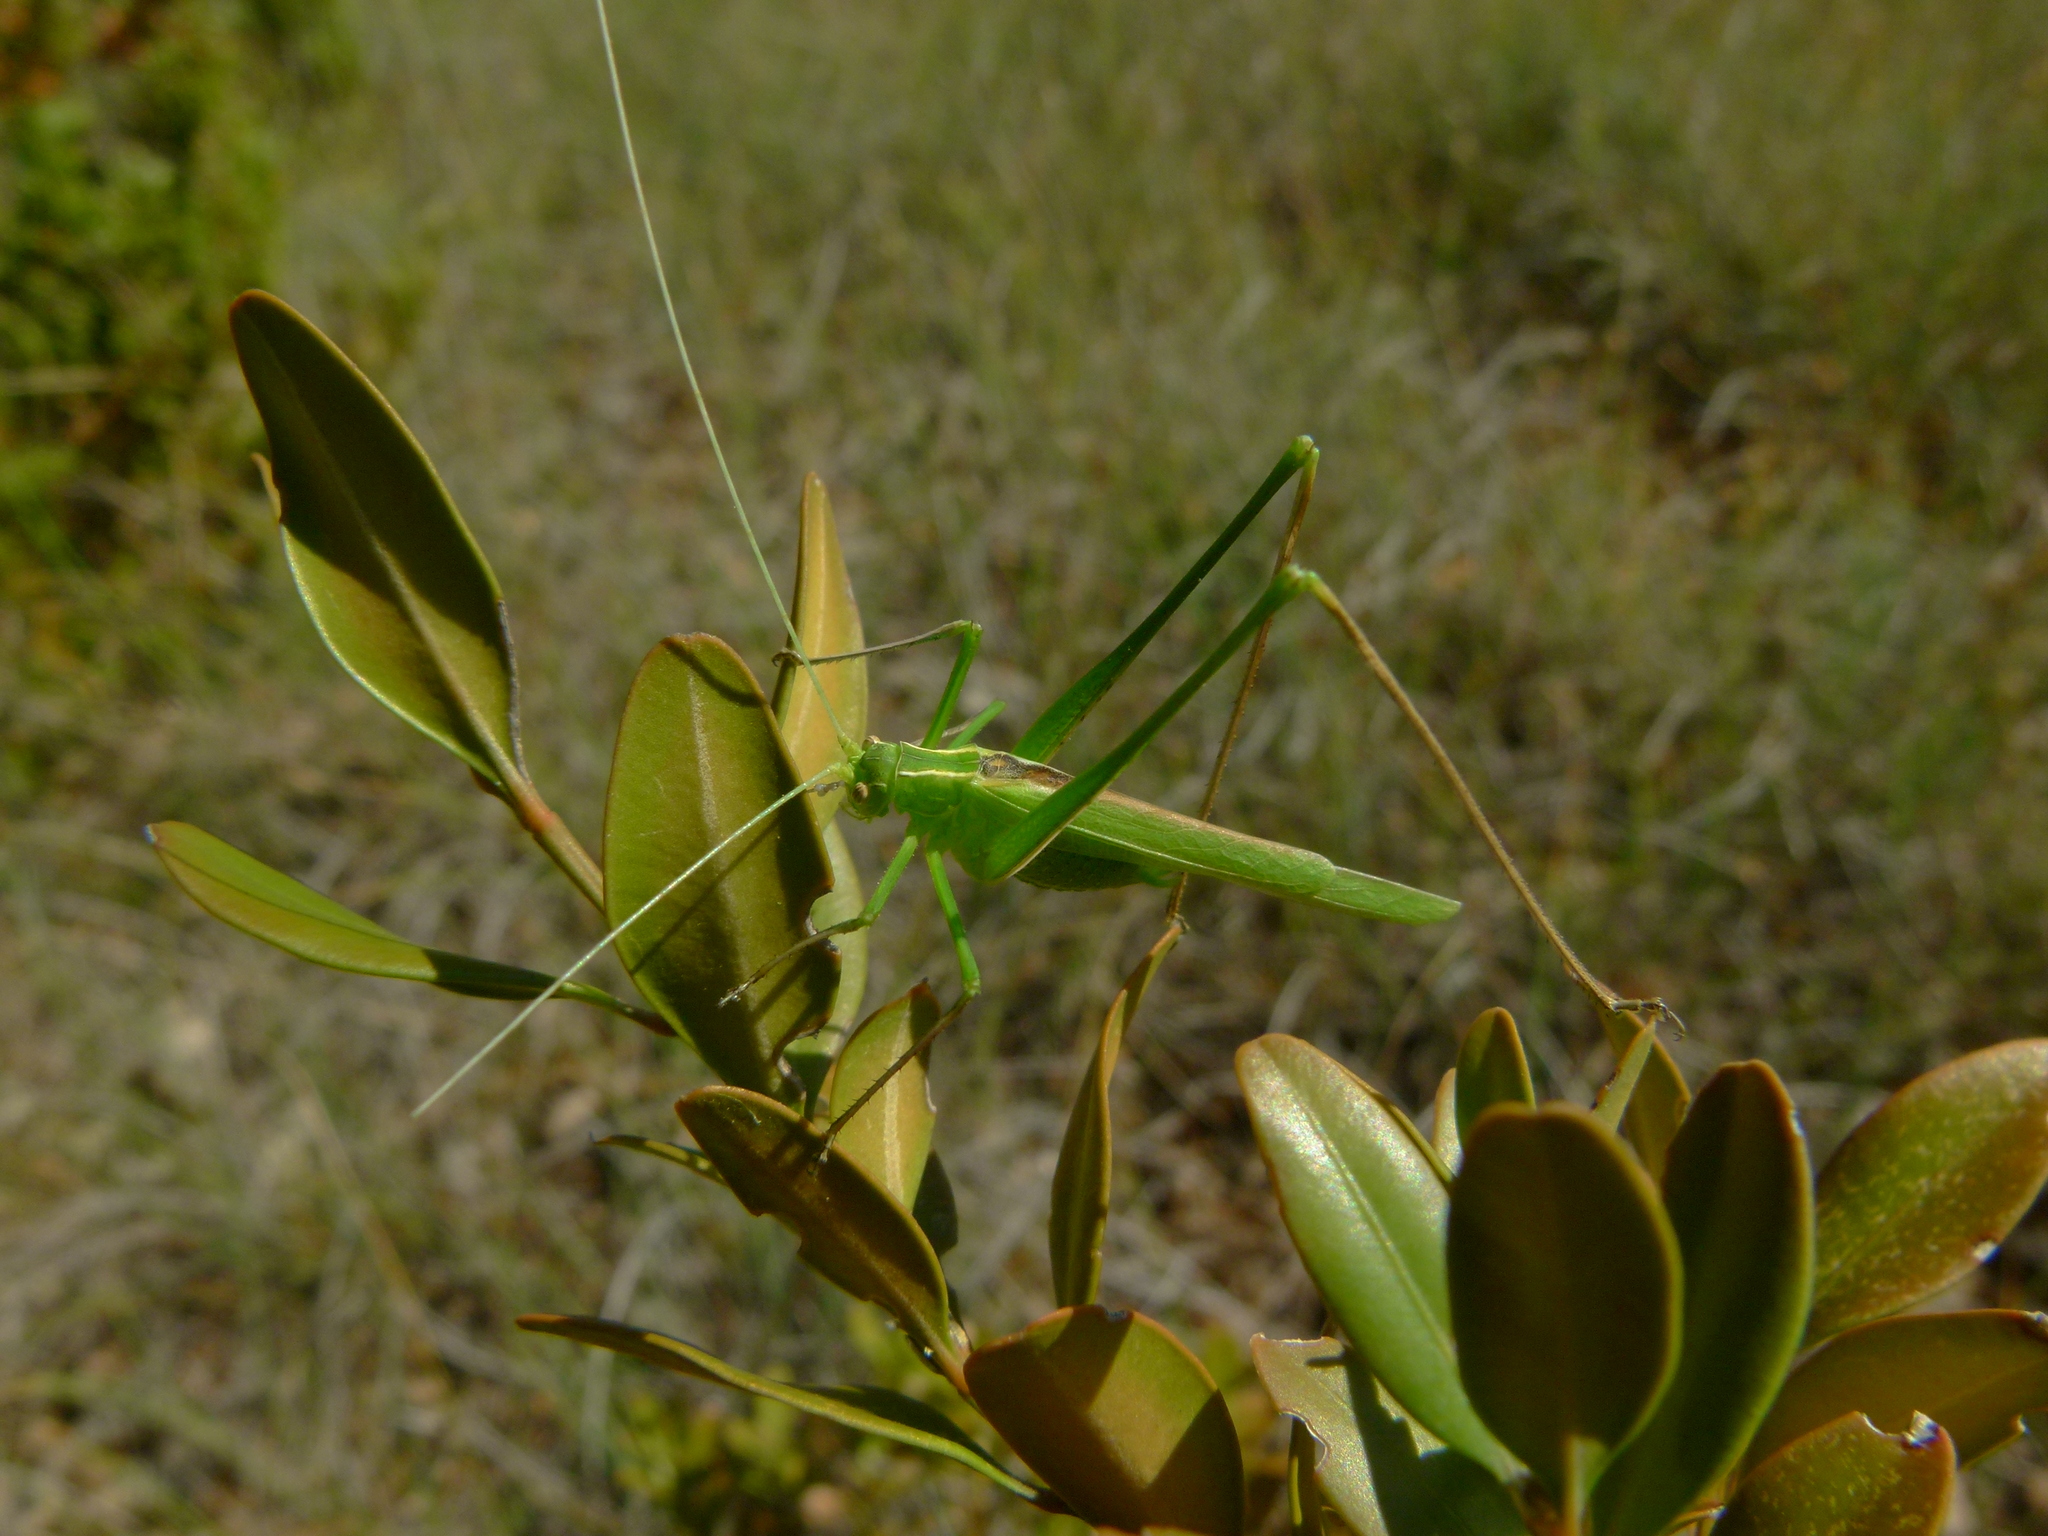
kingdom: Animalia
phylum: Arthropoda
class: Insecta
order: Orthoptera
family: Tettigoniidae
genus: Tylopsis
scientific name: Tylopsis lilifolia
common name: Lily bush-cricket
